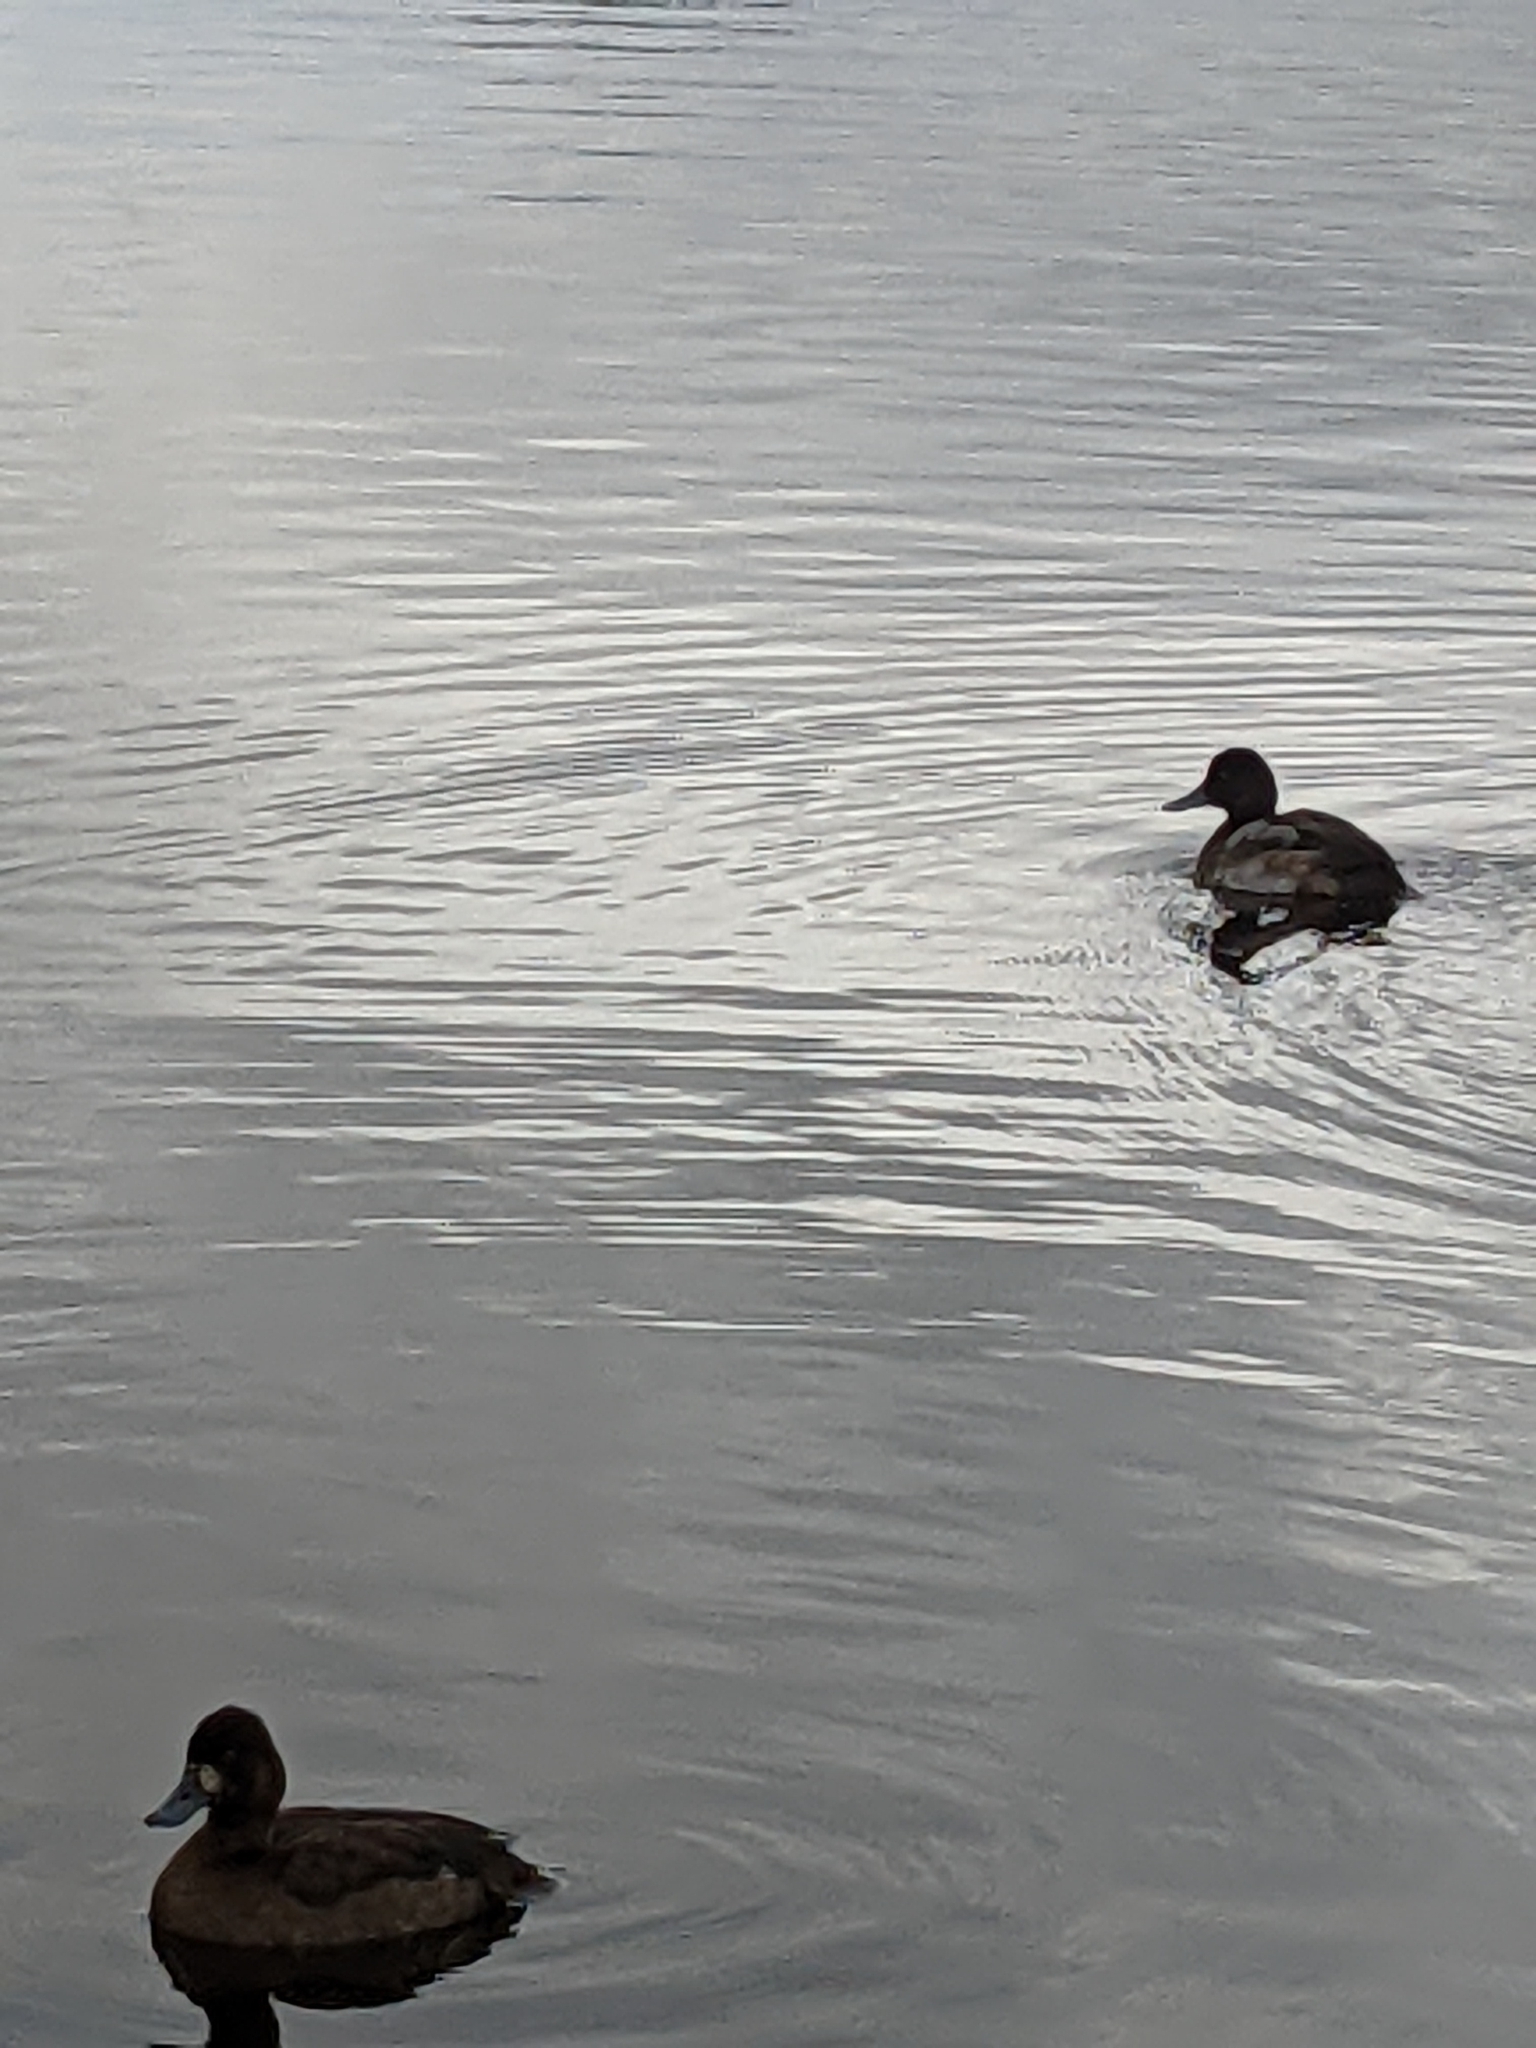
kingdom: Animalia
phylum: Chordata
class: Aves
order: Anseriformes
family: Anatidae
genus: Aythya
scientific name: Aythya affinis
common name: Lesser scaup
